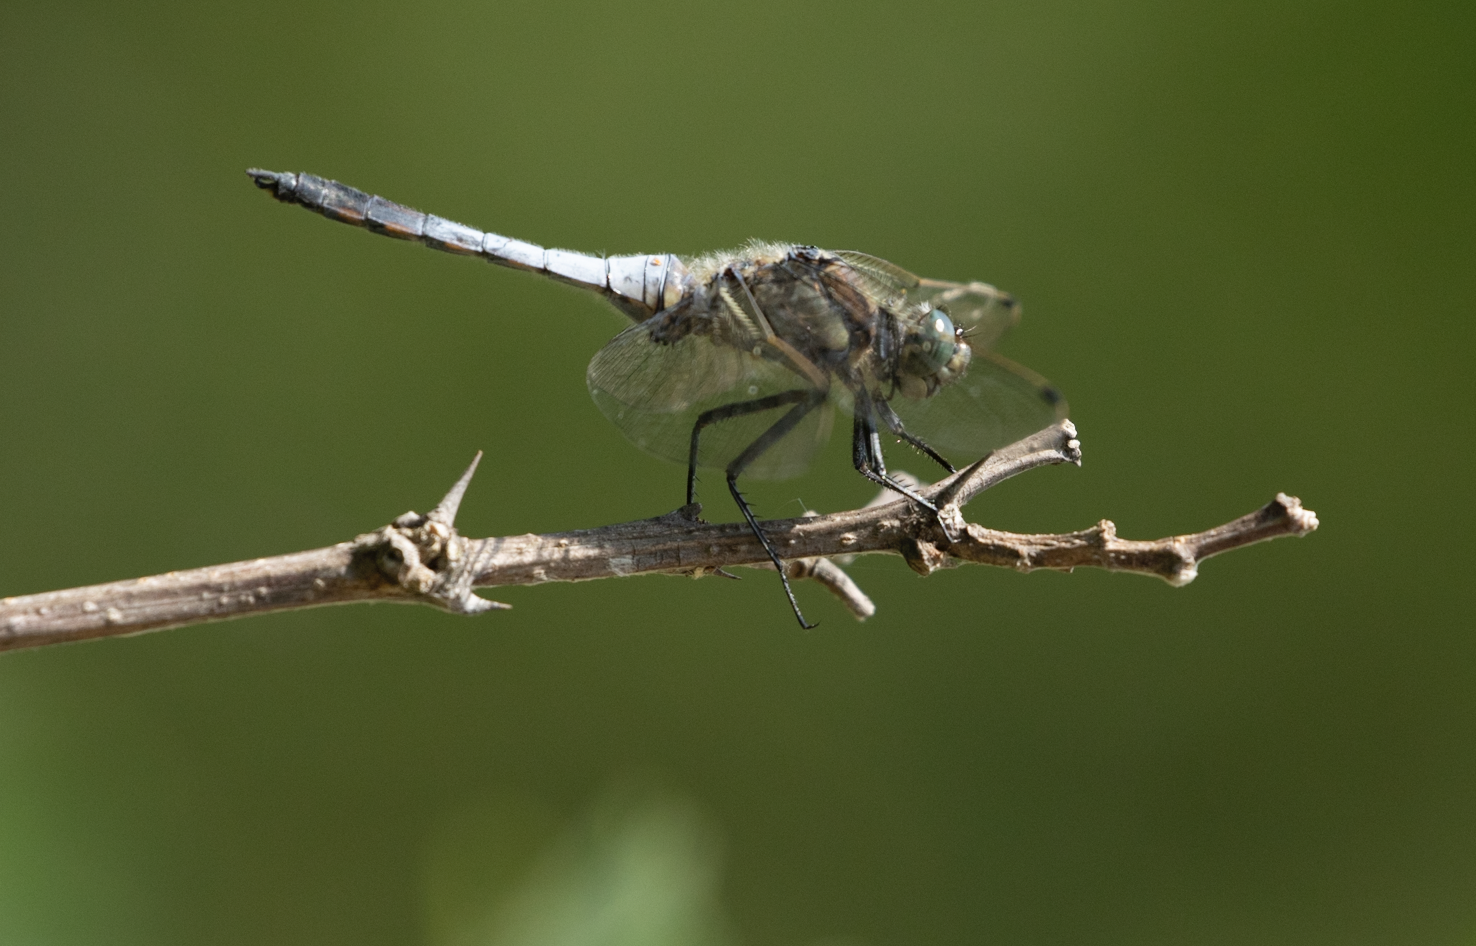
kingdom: Animalia
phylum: Arthropoda
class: Insecta
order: Odonata
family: Libellulidae
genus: Orthetrum
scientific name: Orthetrum cancellatum
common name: Black-tailed skimmer
